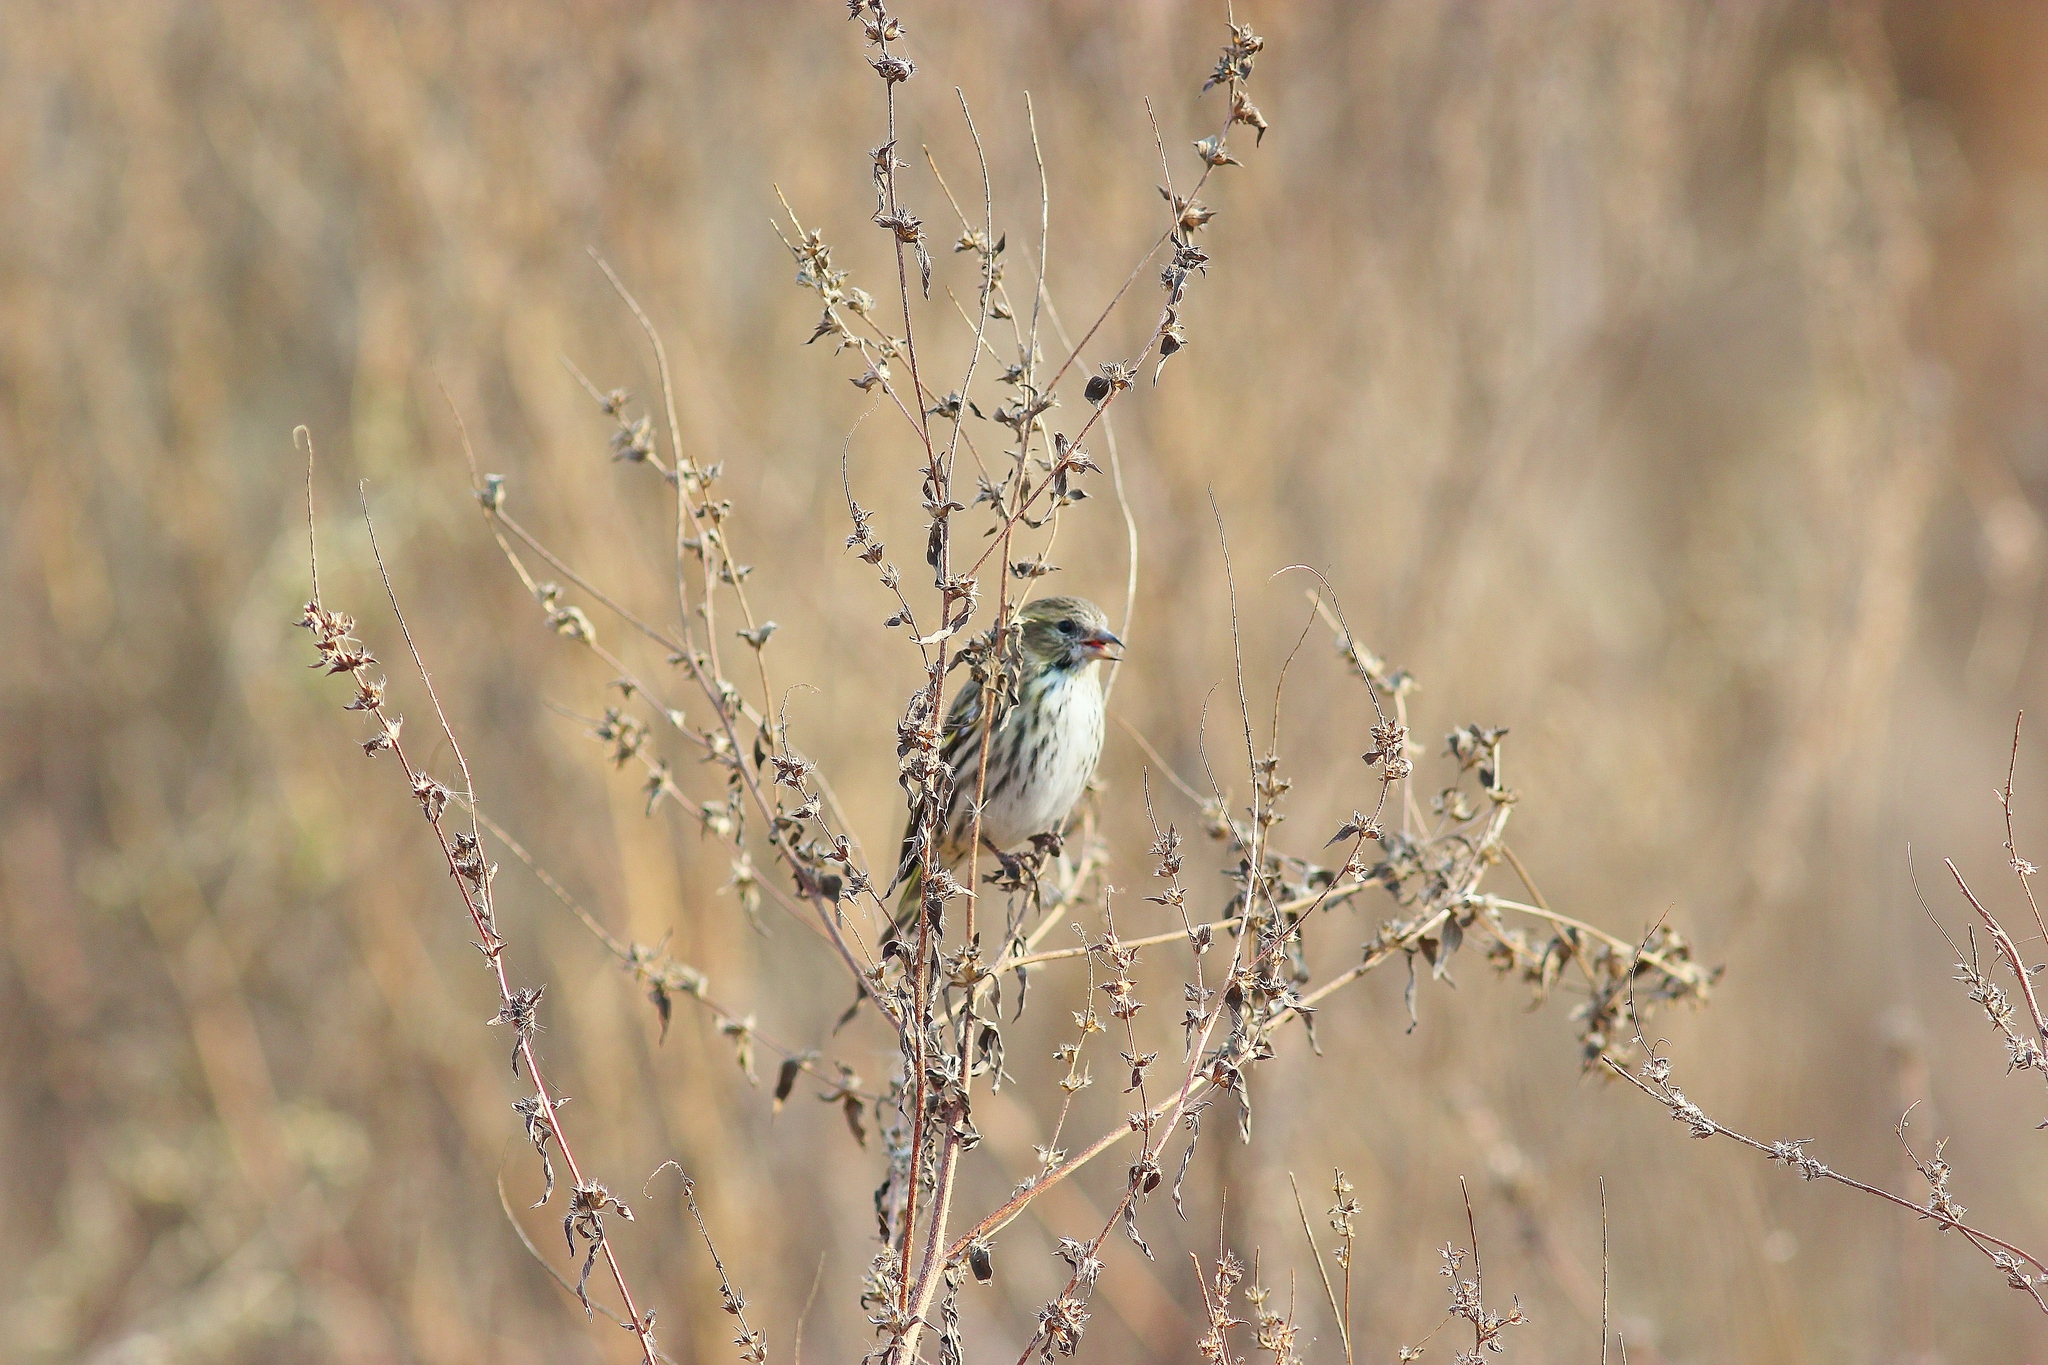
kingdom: Animalia
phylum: Chordata
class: Aves
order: Passeriformes
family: Fringillidae
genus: Spinus
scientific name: Spinus spinus
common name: Eurasian siskin
